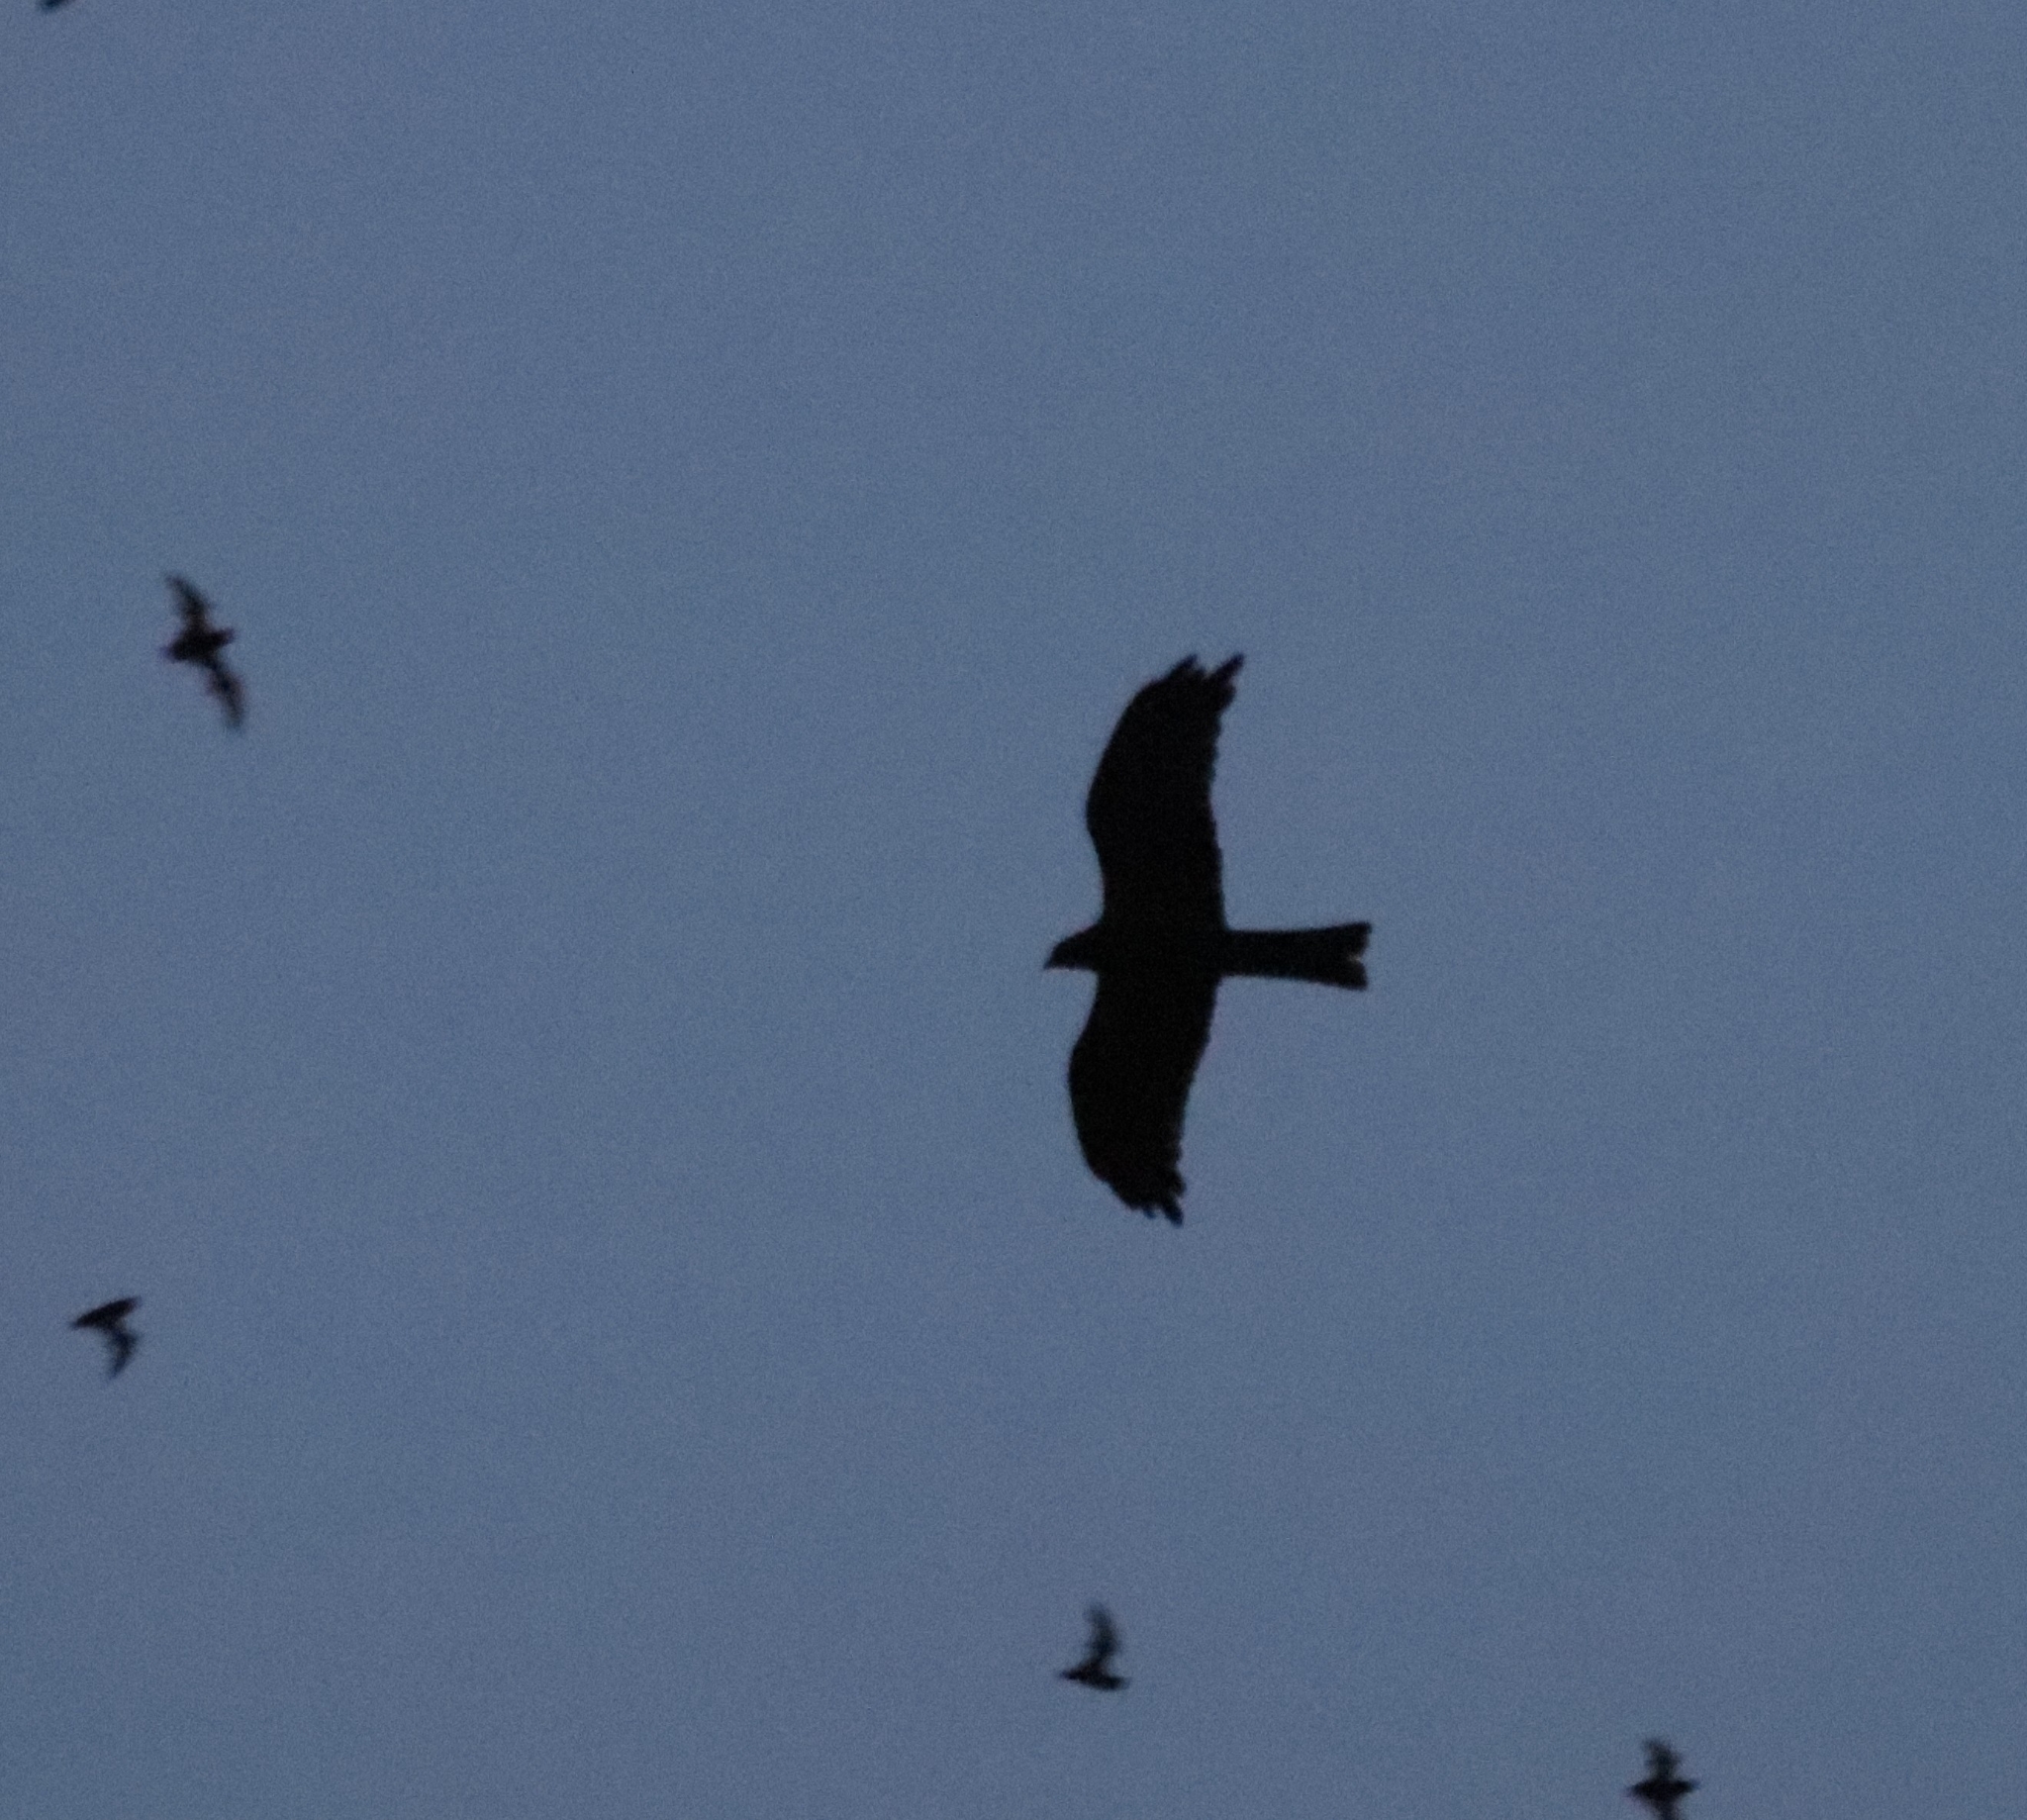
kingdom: Animalia
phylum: Chordata
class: Aves
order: Accipitriformes
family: Accipitridae
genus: Milvus
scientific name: Milvus migrans
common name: Black kite
